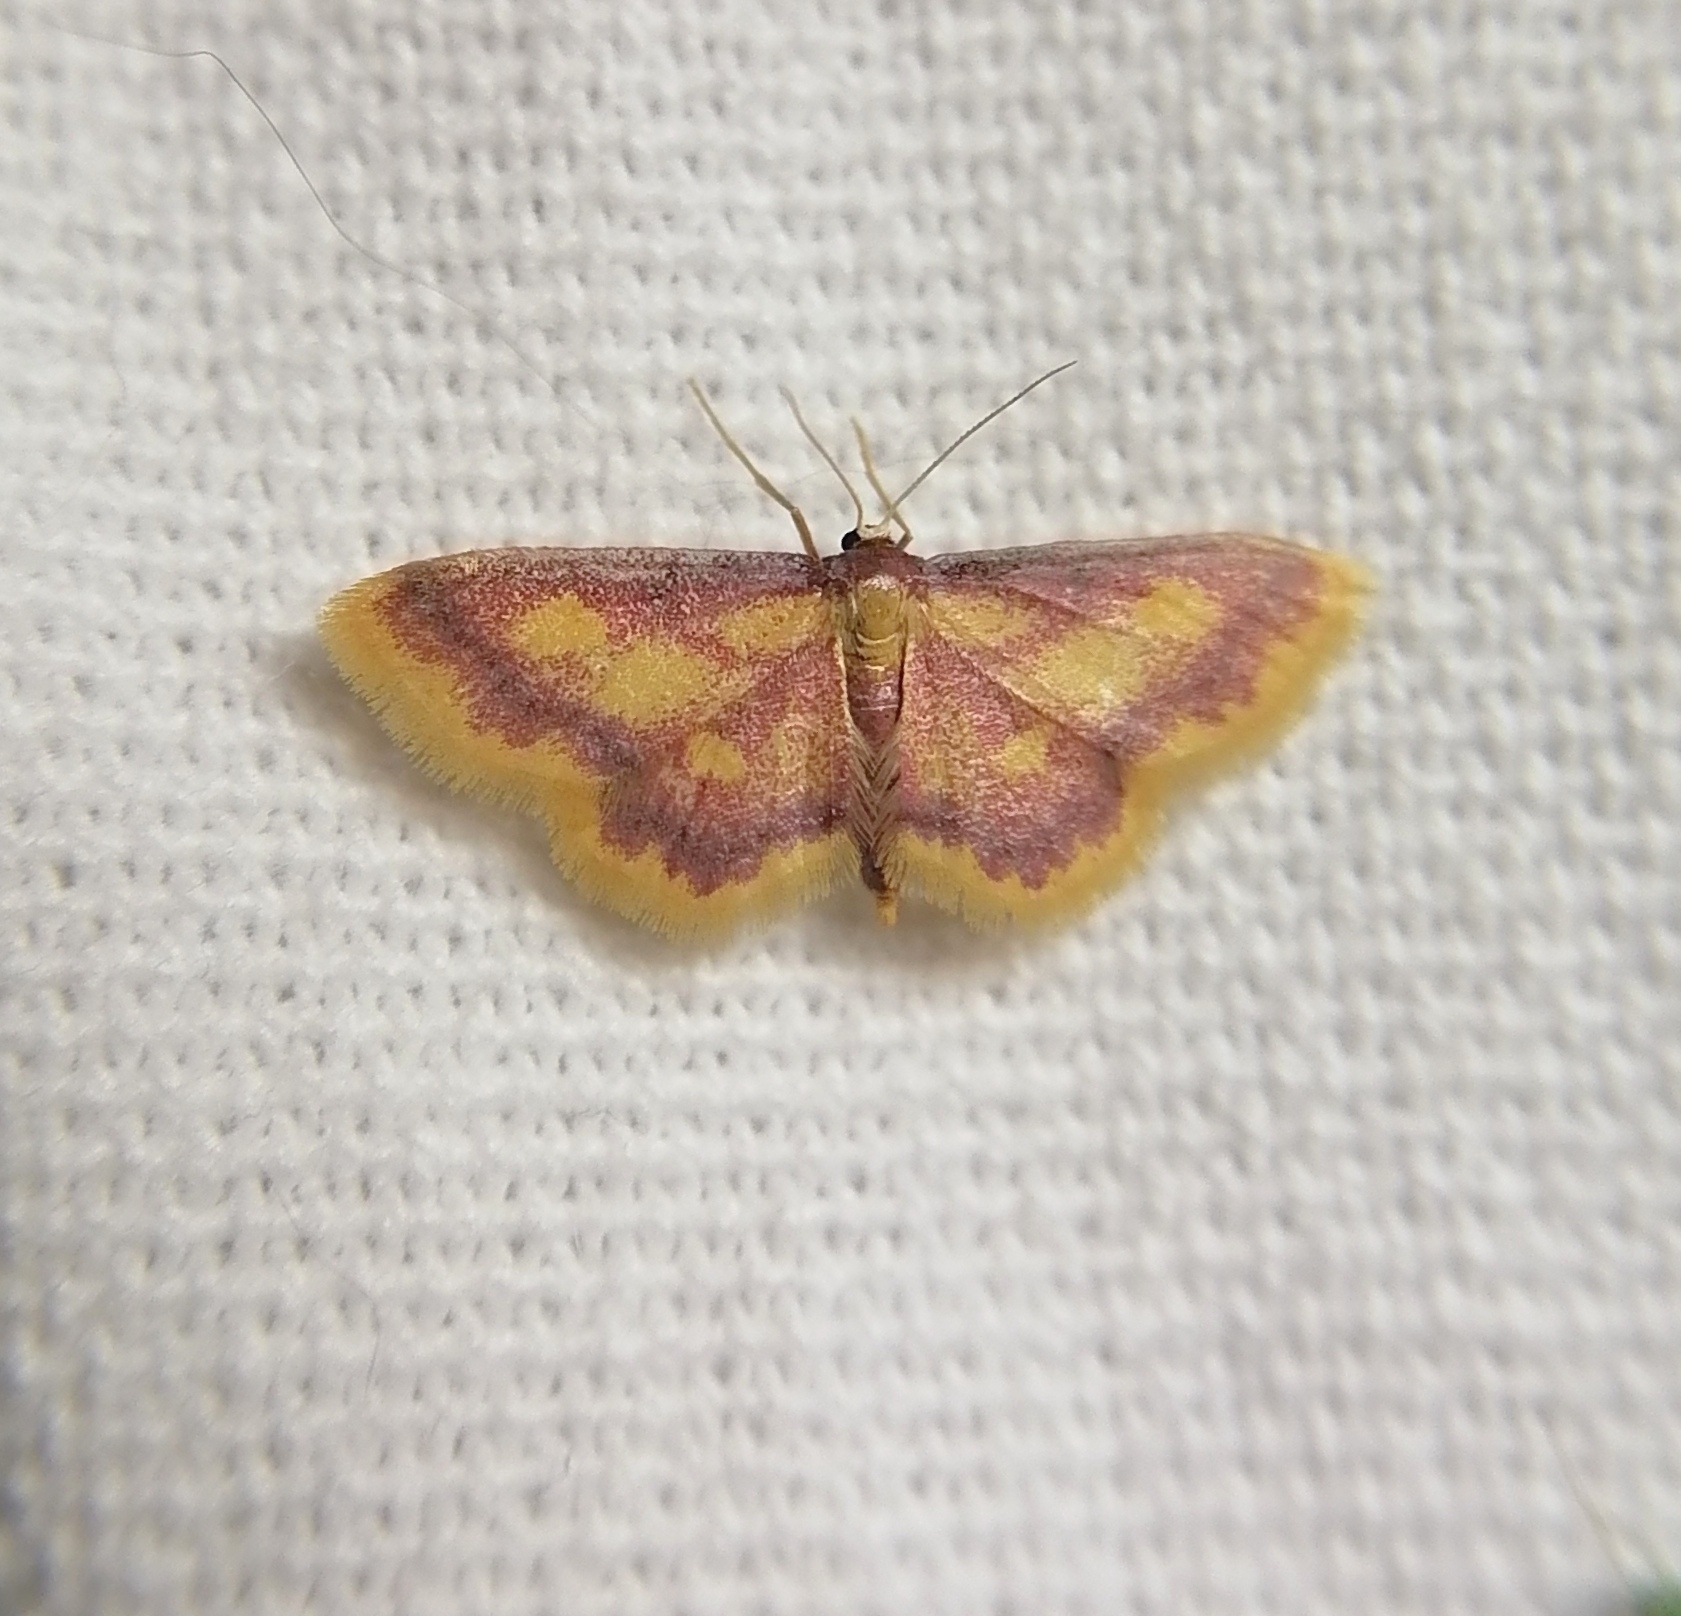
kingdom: Animalia
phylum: Arthropoda
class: Insecta
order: Lepidoptera
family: Geometridae
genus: Idaea
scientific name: Idaea muricata
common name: Purple-bordered gold
